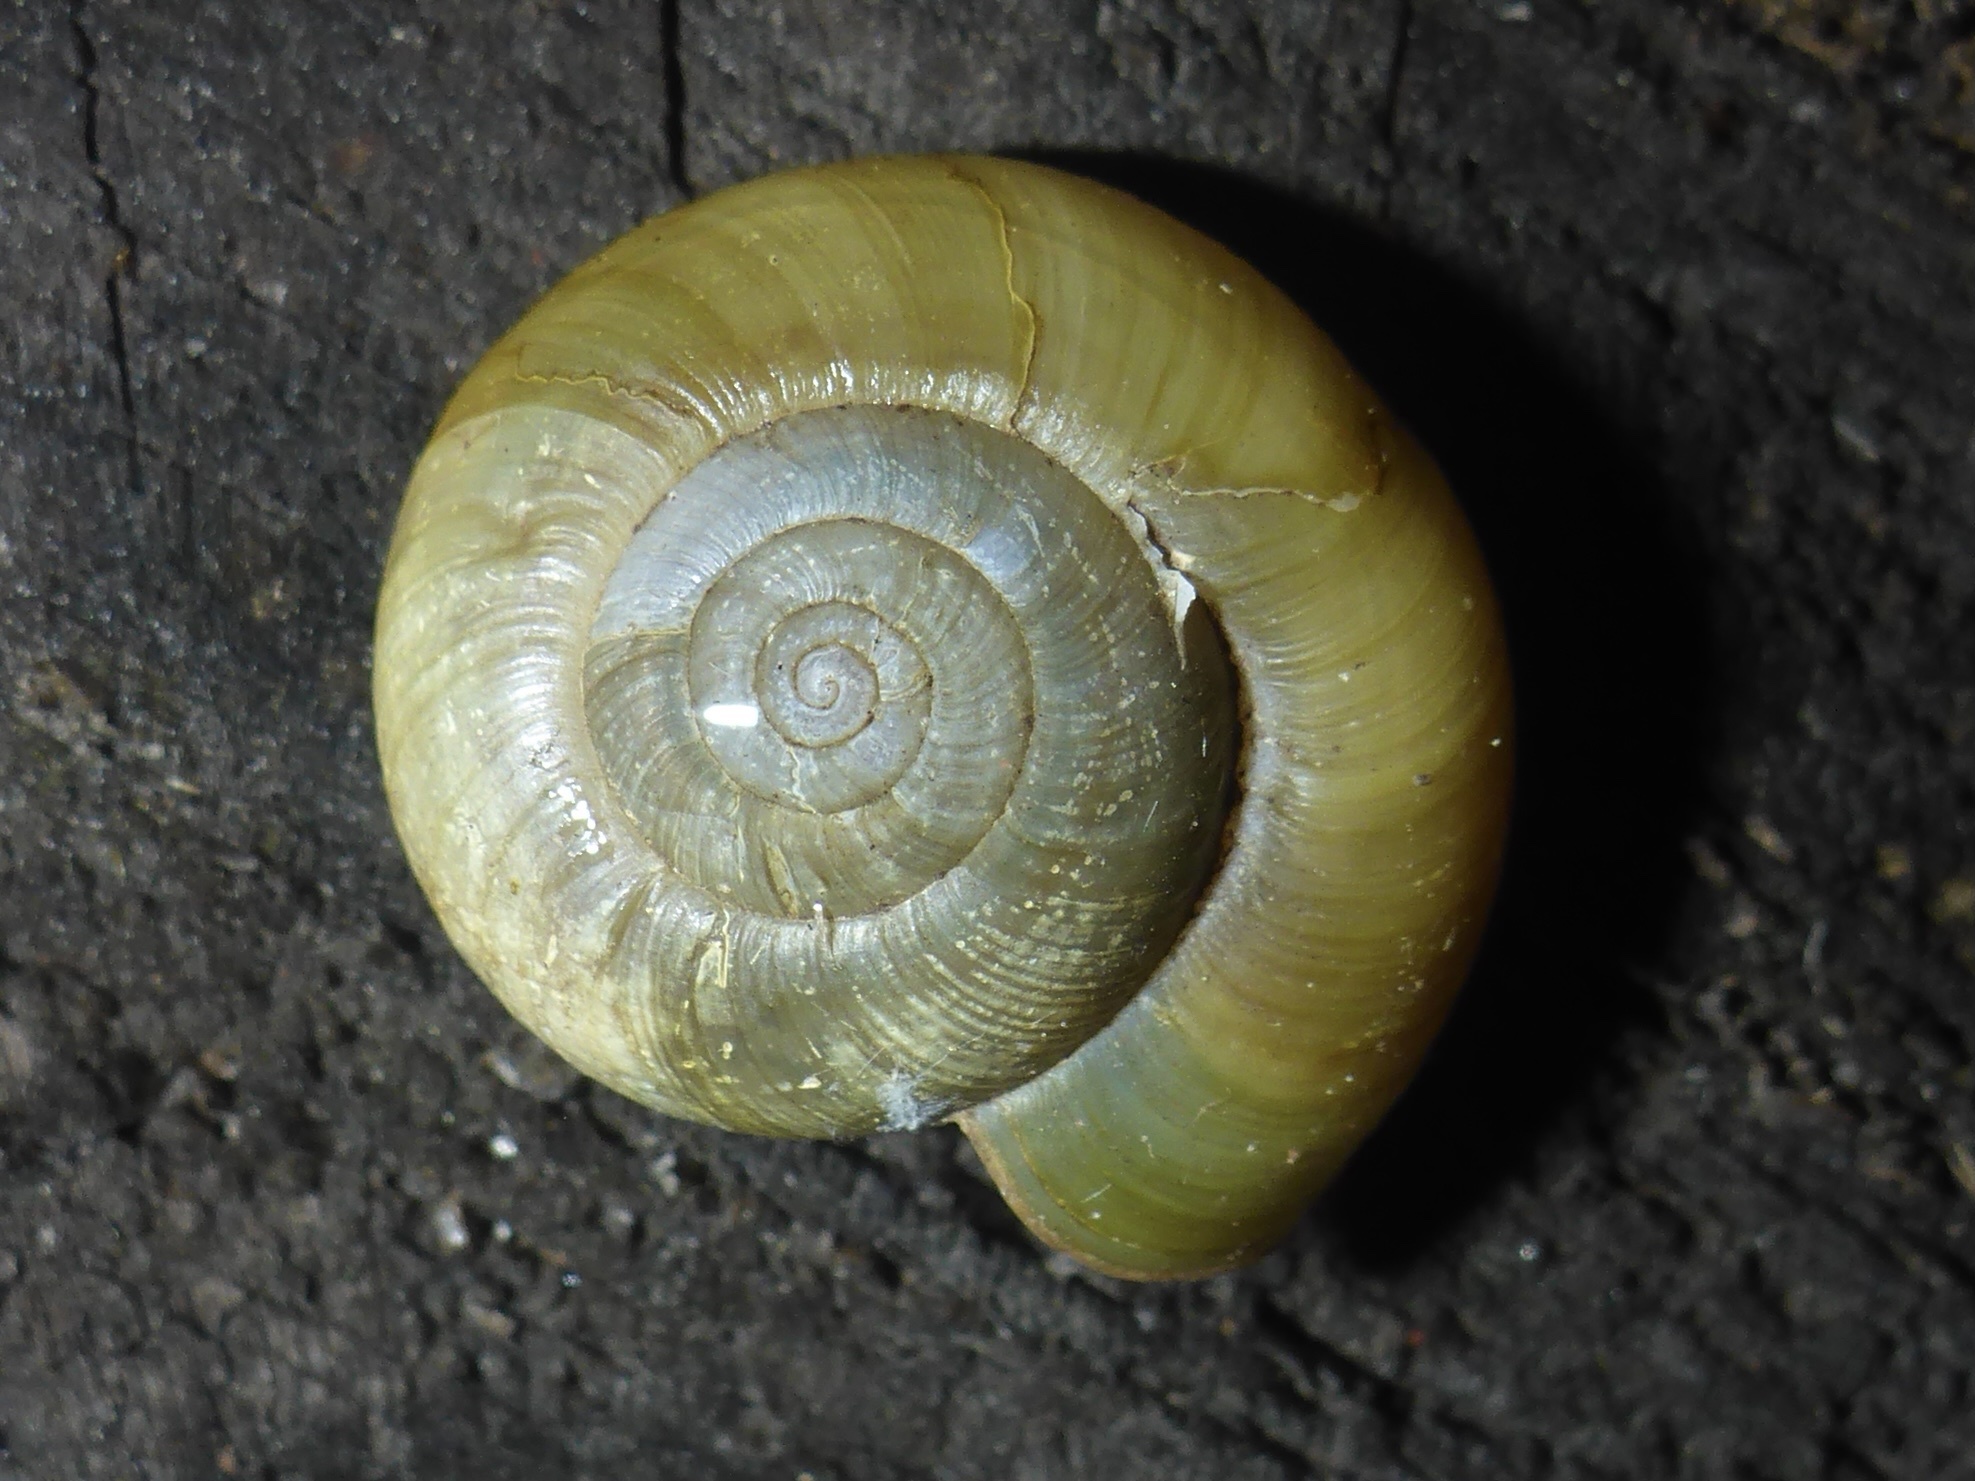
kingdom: Animalia
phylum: Mollusca
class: Gastropoda
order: Stylommatophora
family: Haplotrematidae
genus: Haplotrema
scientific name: Haplotrema minimum
